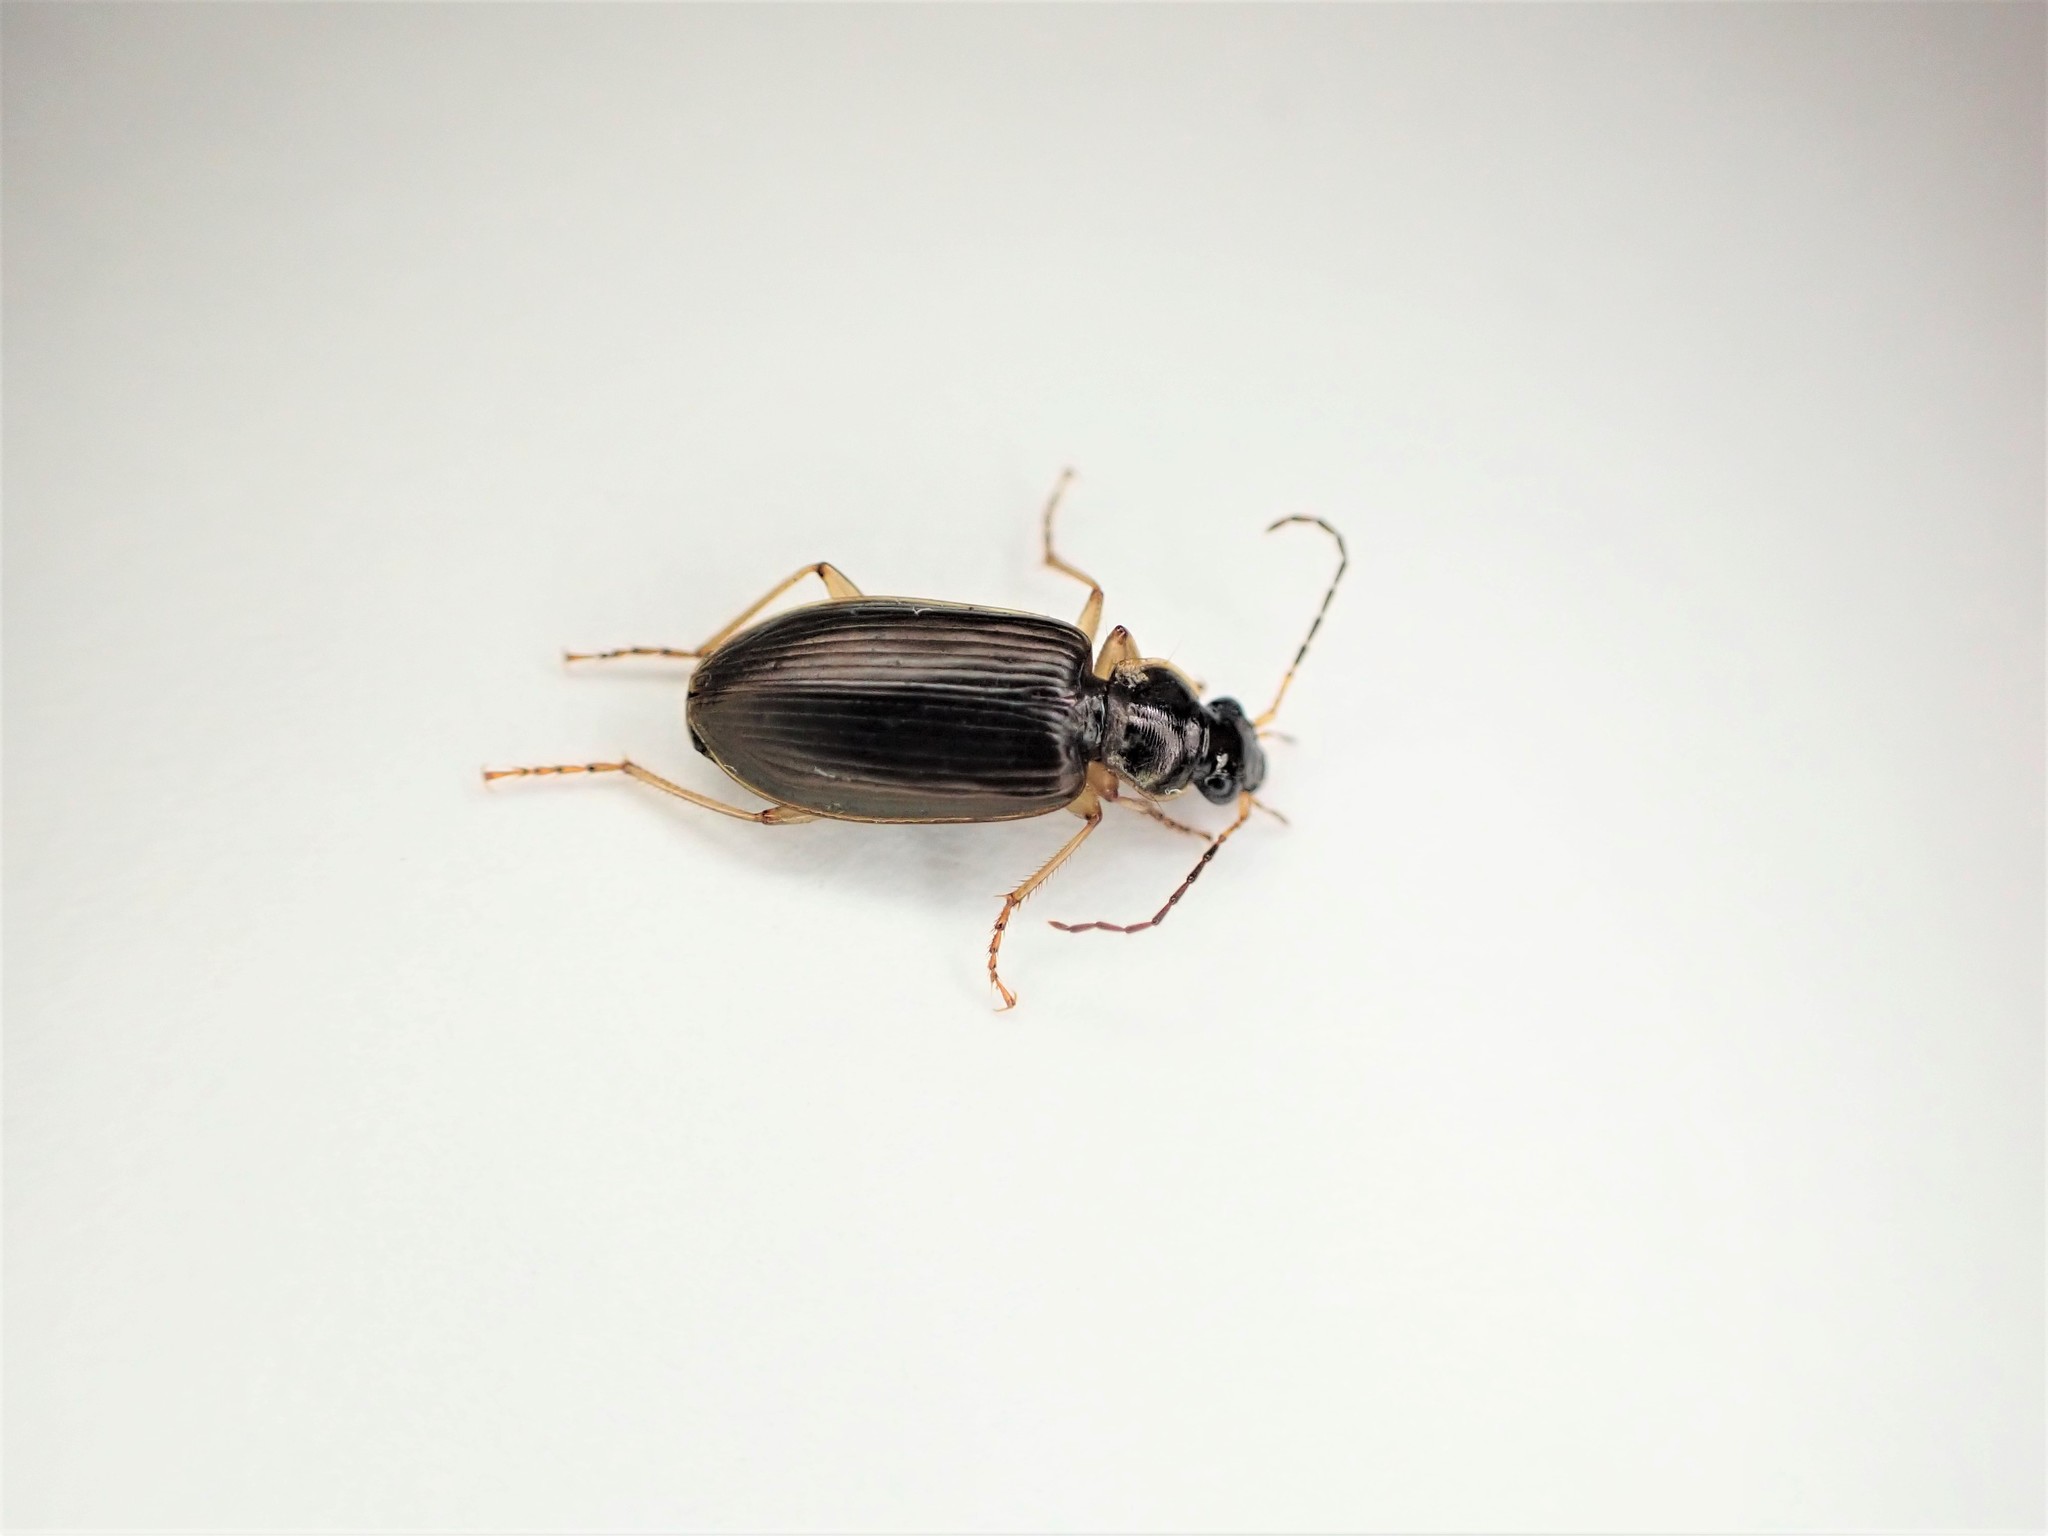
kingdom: Animalia
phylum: Arthropoda
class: Insecta
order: Coleoptera
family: Carabidae
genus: Notagonum
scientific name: Notagonum submetallicum
